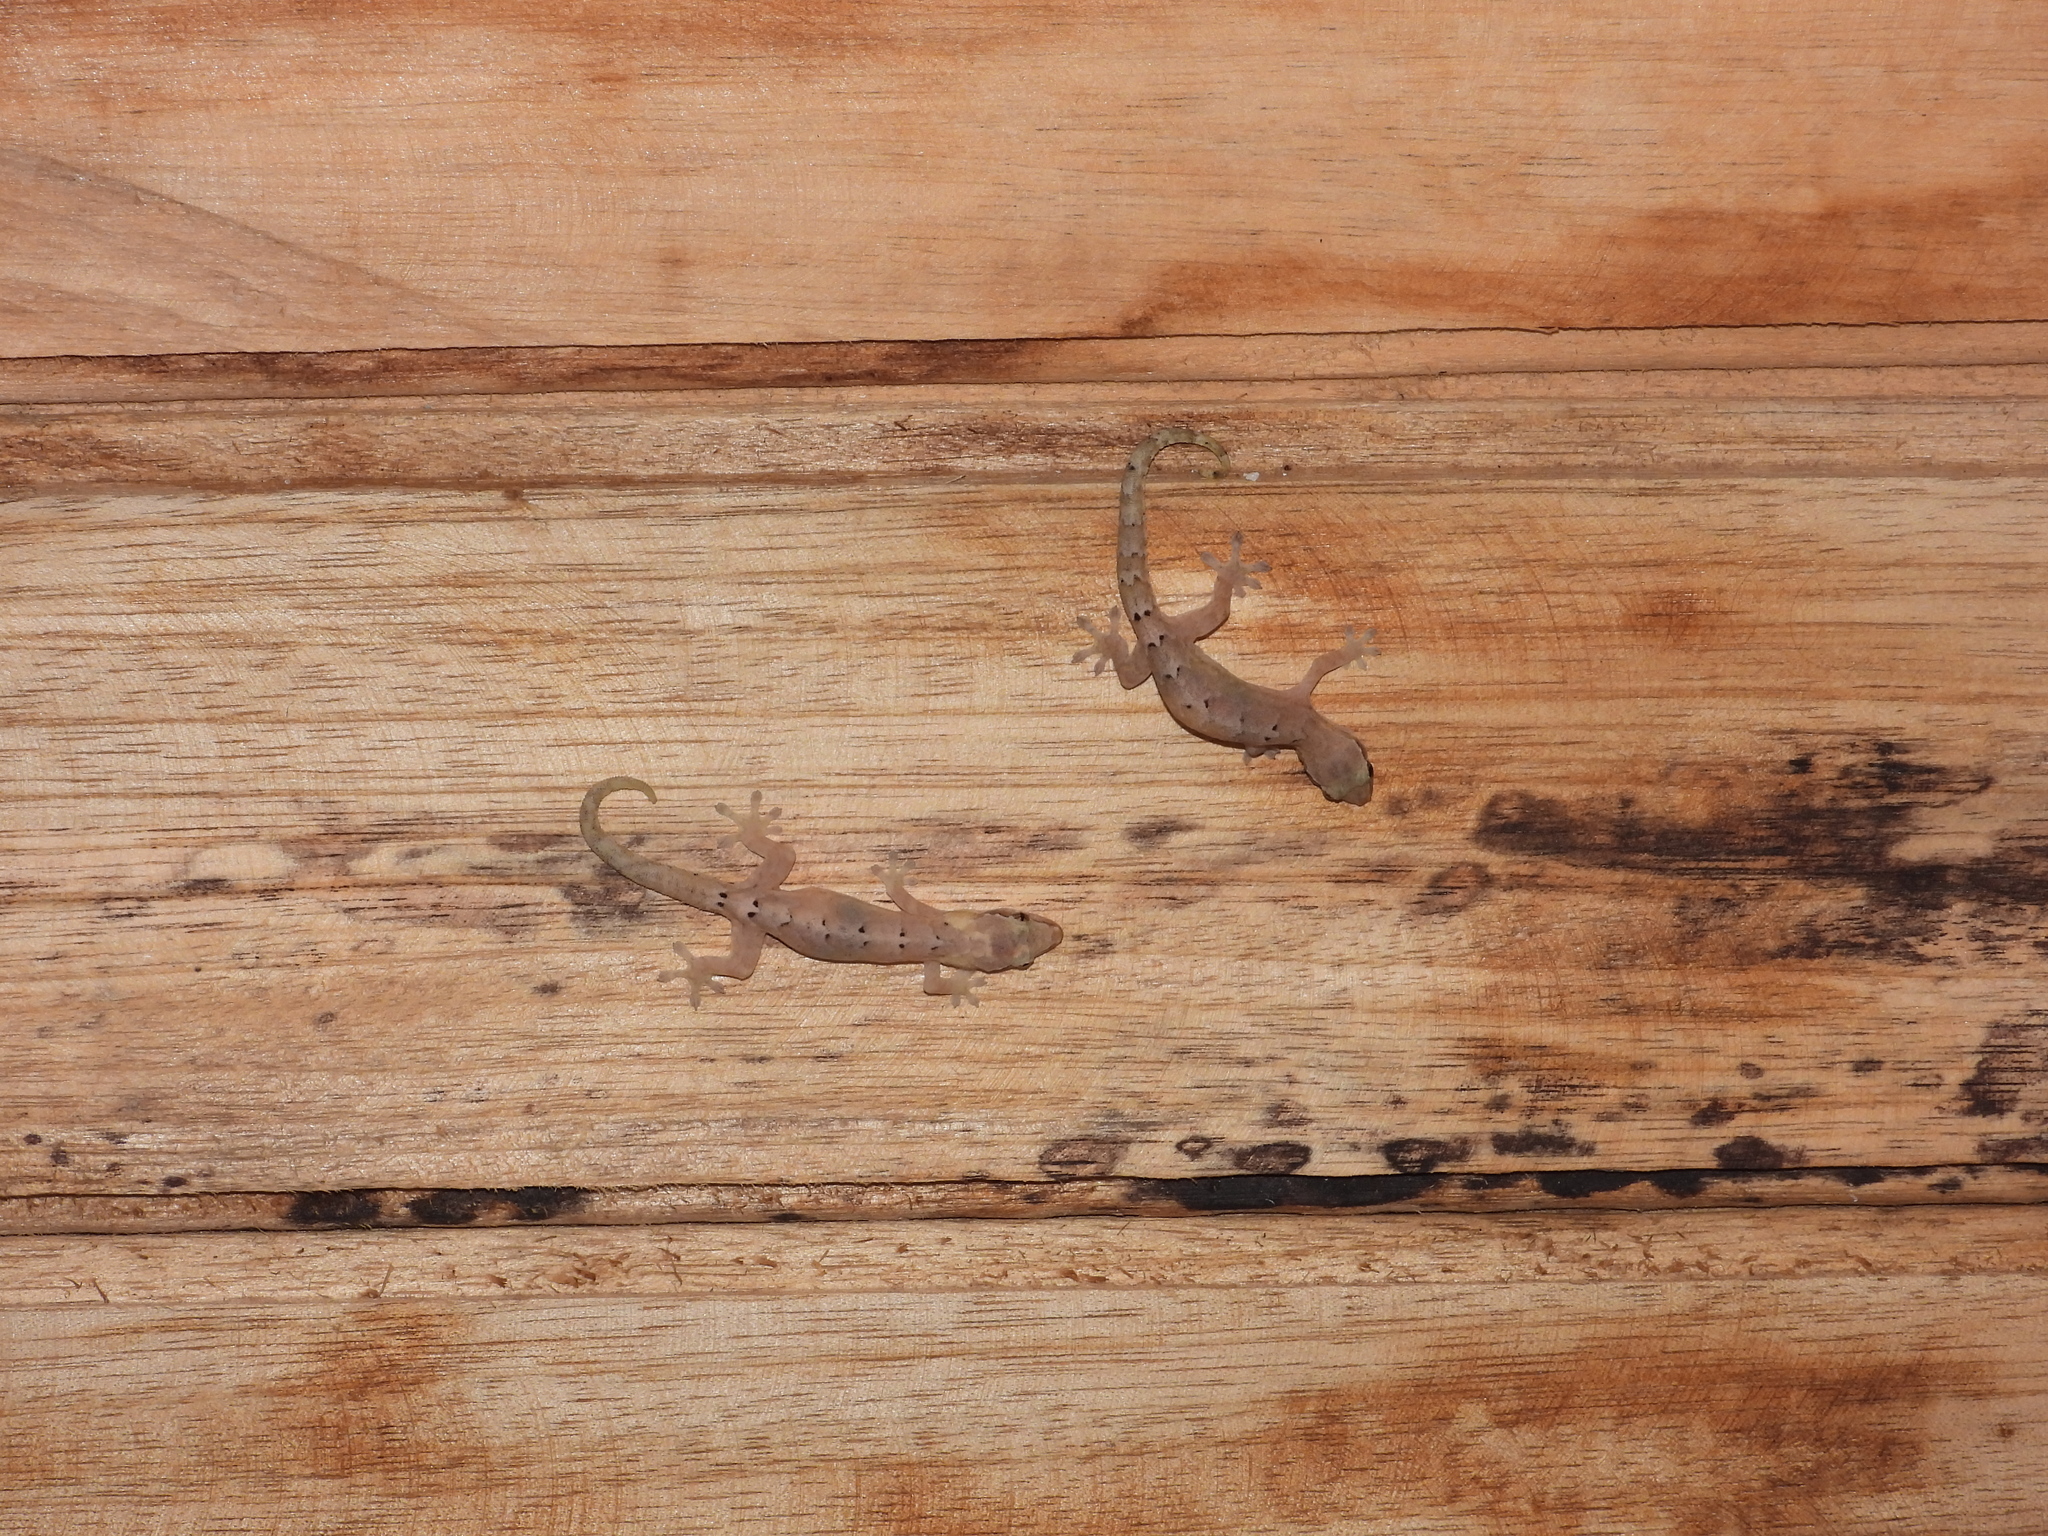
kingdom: Animalia
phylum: Chordata
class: Squamata
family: Gekkonidae
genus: Lepidodactylus
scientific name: Lepidodactylus lugubris
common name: Mourning gecko
